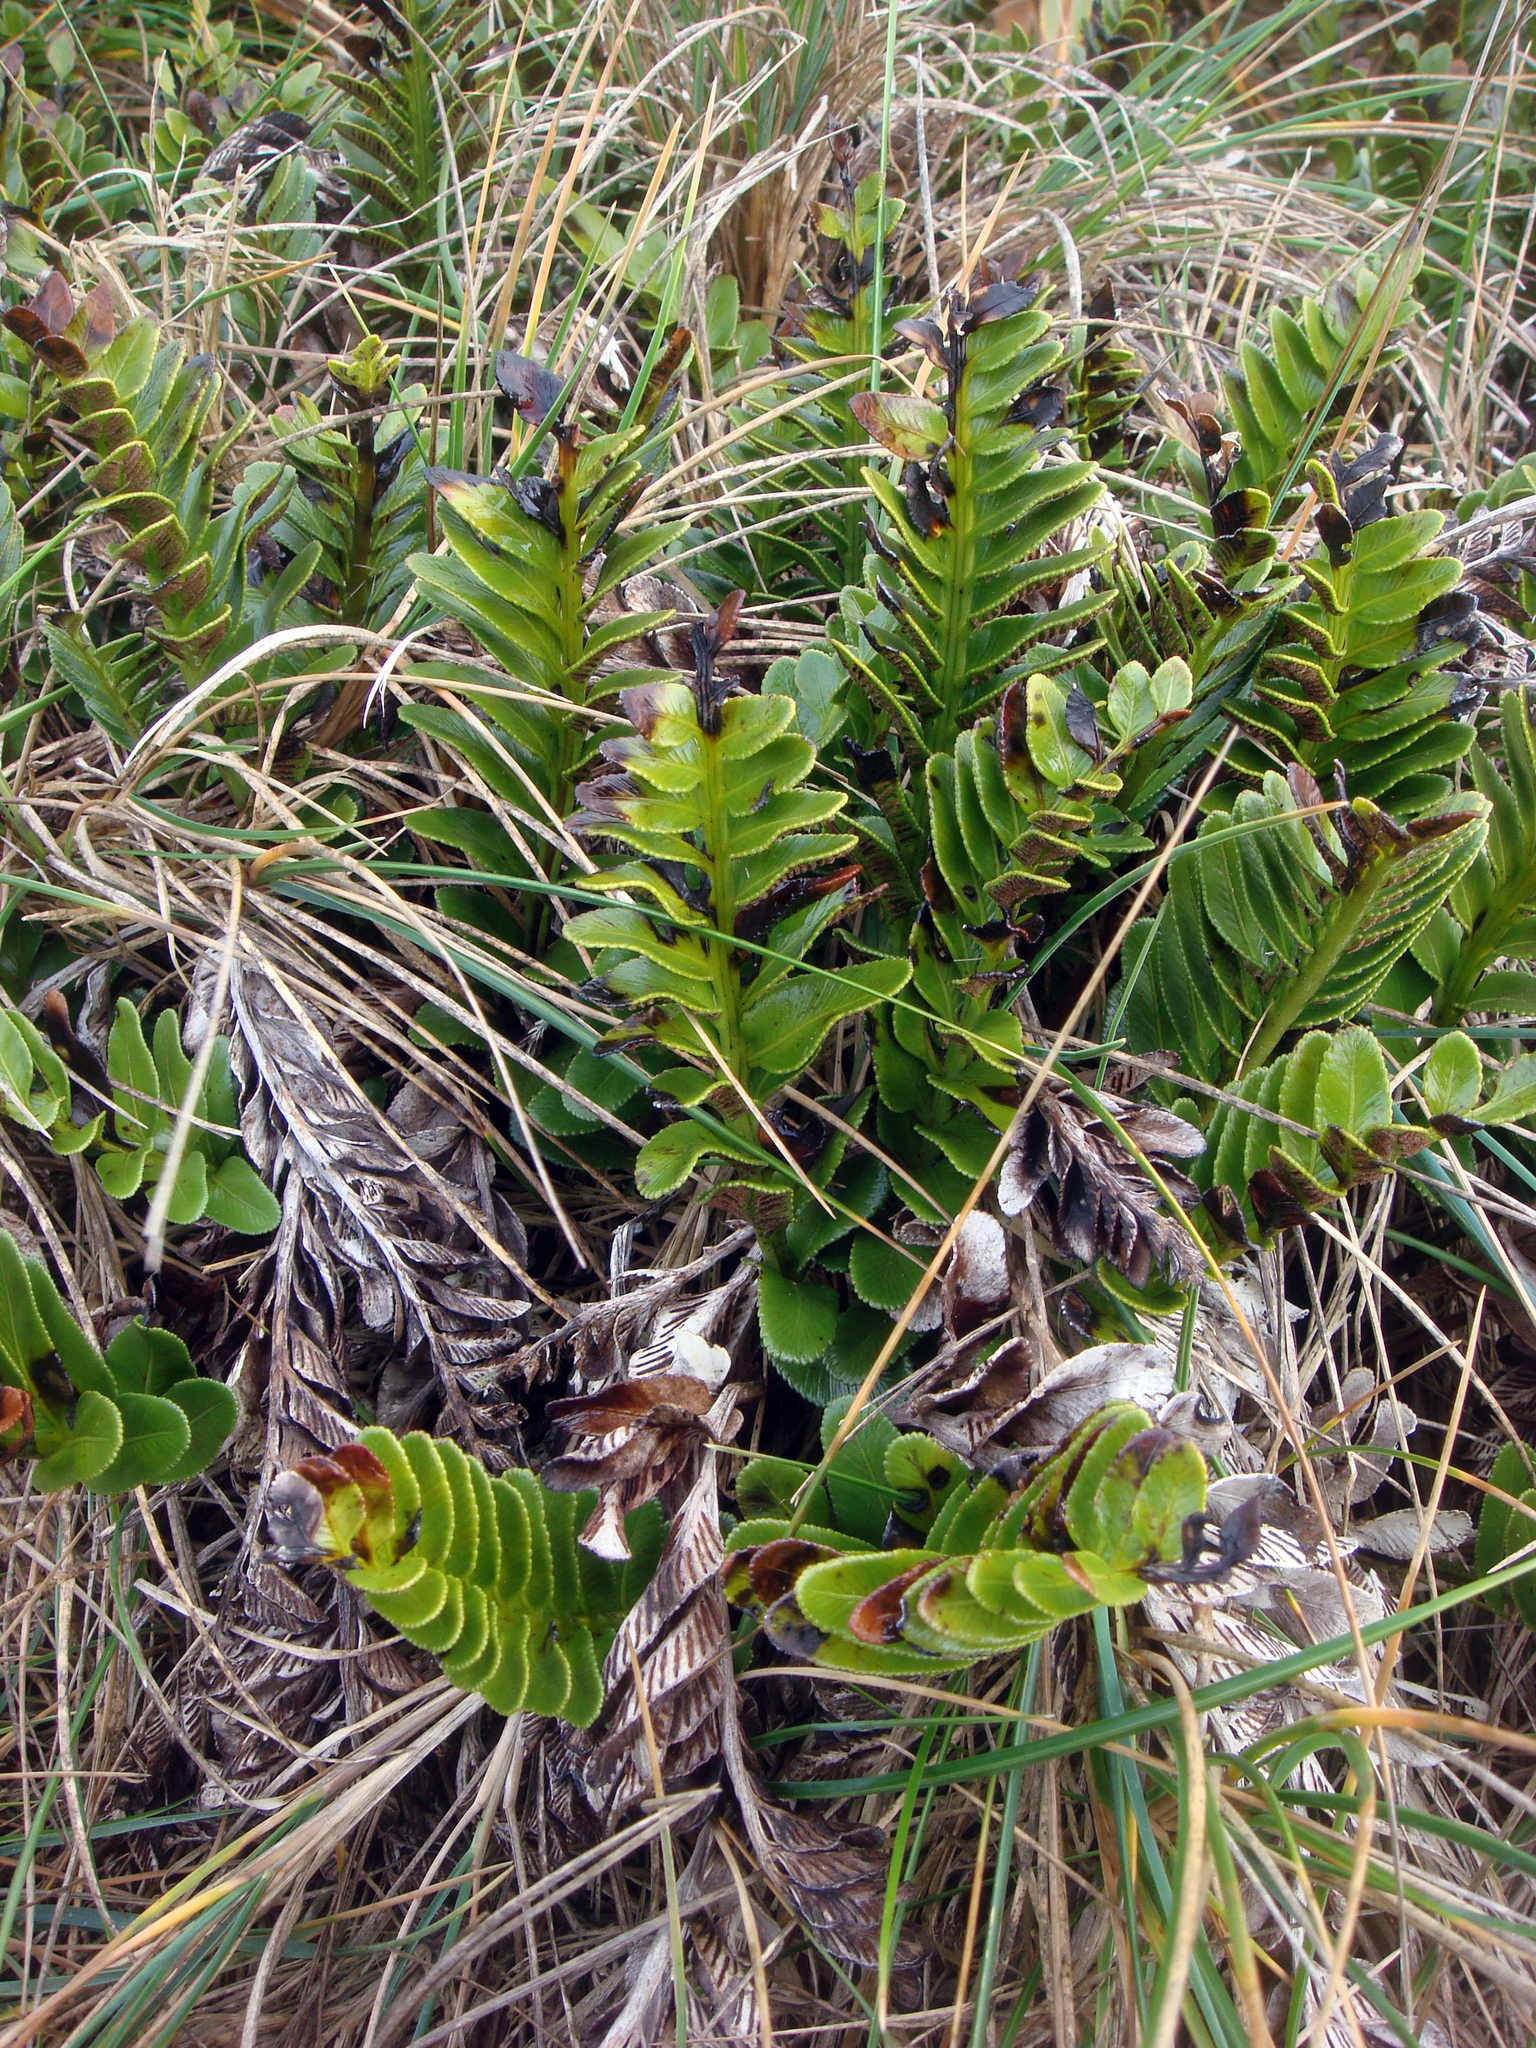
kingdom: Plantae
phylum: Tracheophyta
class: Polypodiopsida
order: Polypodiales
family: Aspleniaceae
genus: Asplenium
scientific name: Asplenium obtusatum
